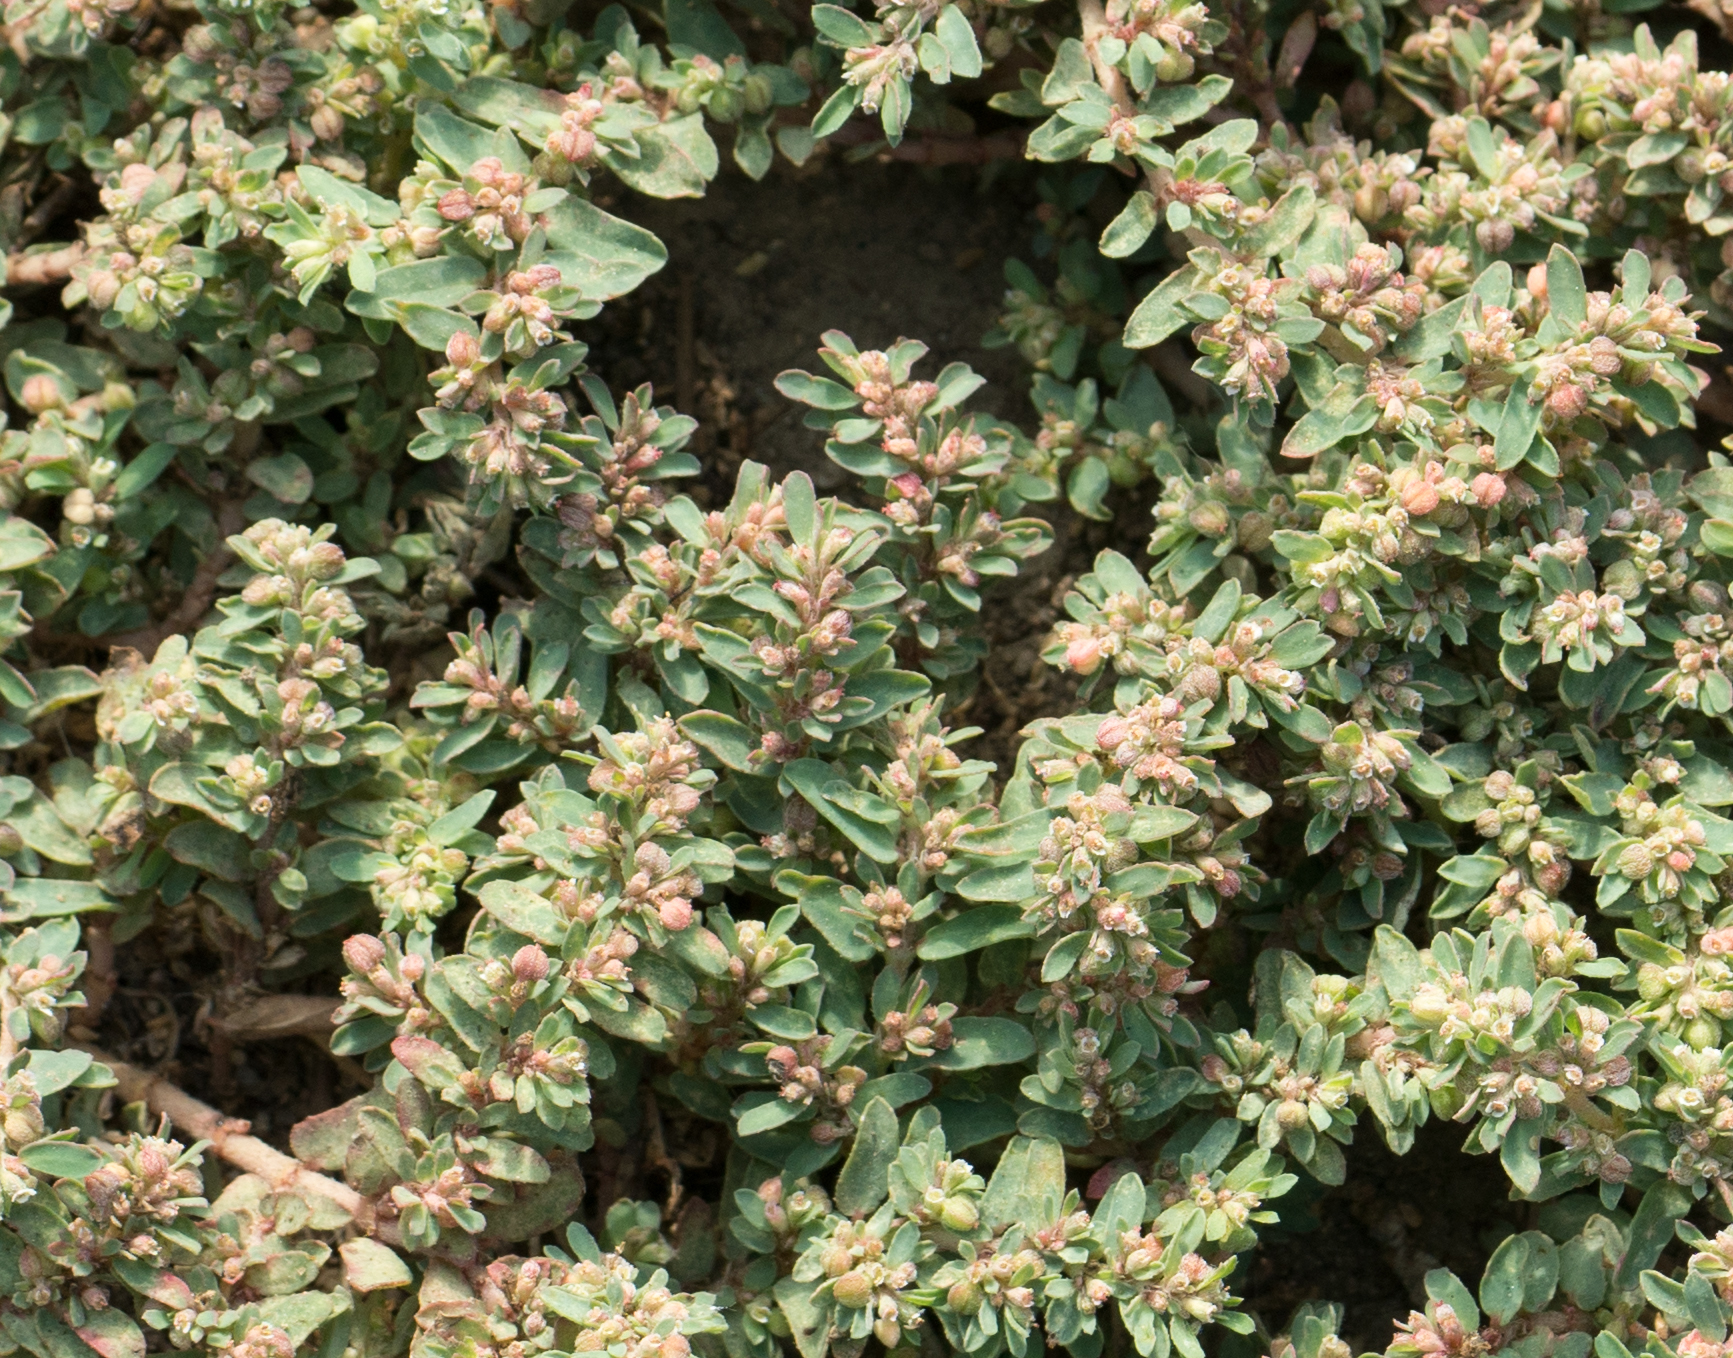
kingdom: Plantae
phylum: Tracheophyta
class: Magnoliopsida
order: Malpighiales
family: Euphorbiaceae
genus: Euphorbia
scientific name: Euphorbia maculata
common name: Spotted spurge
